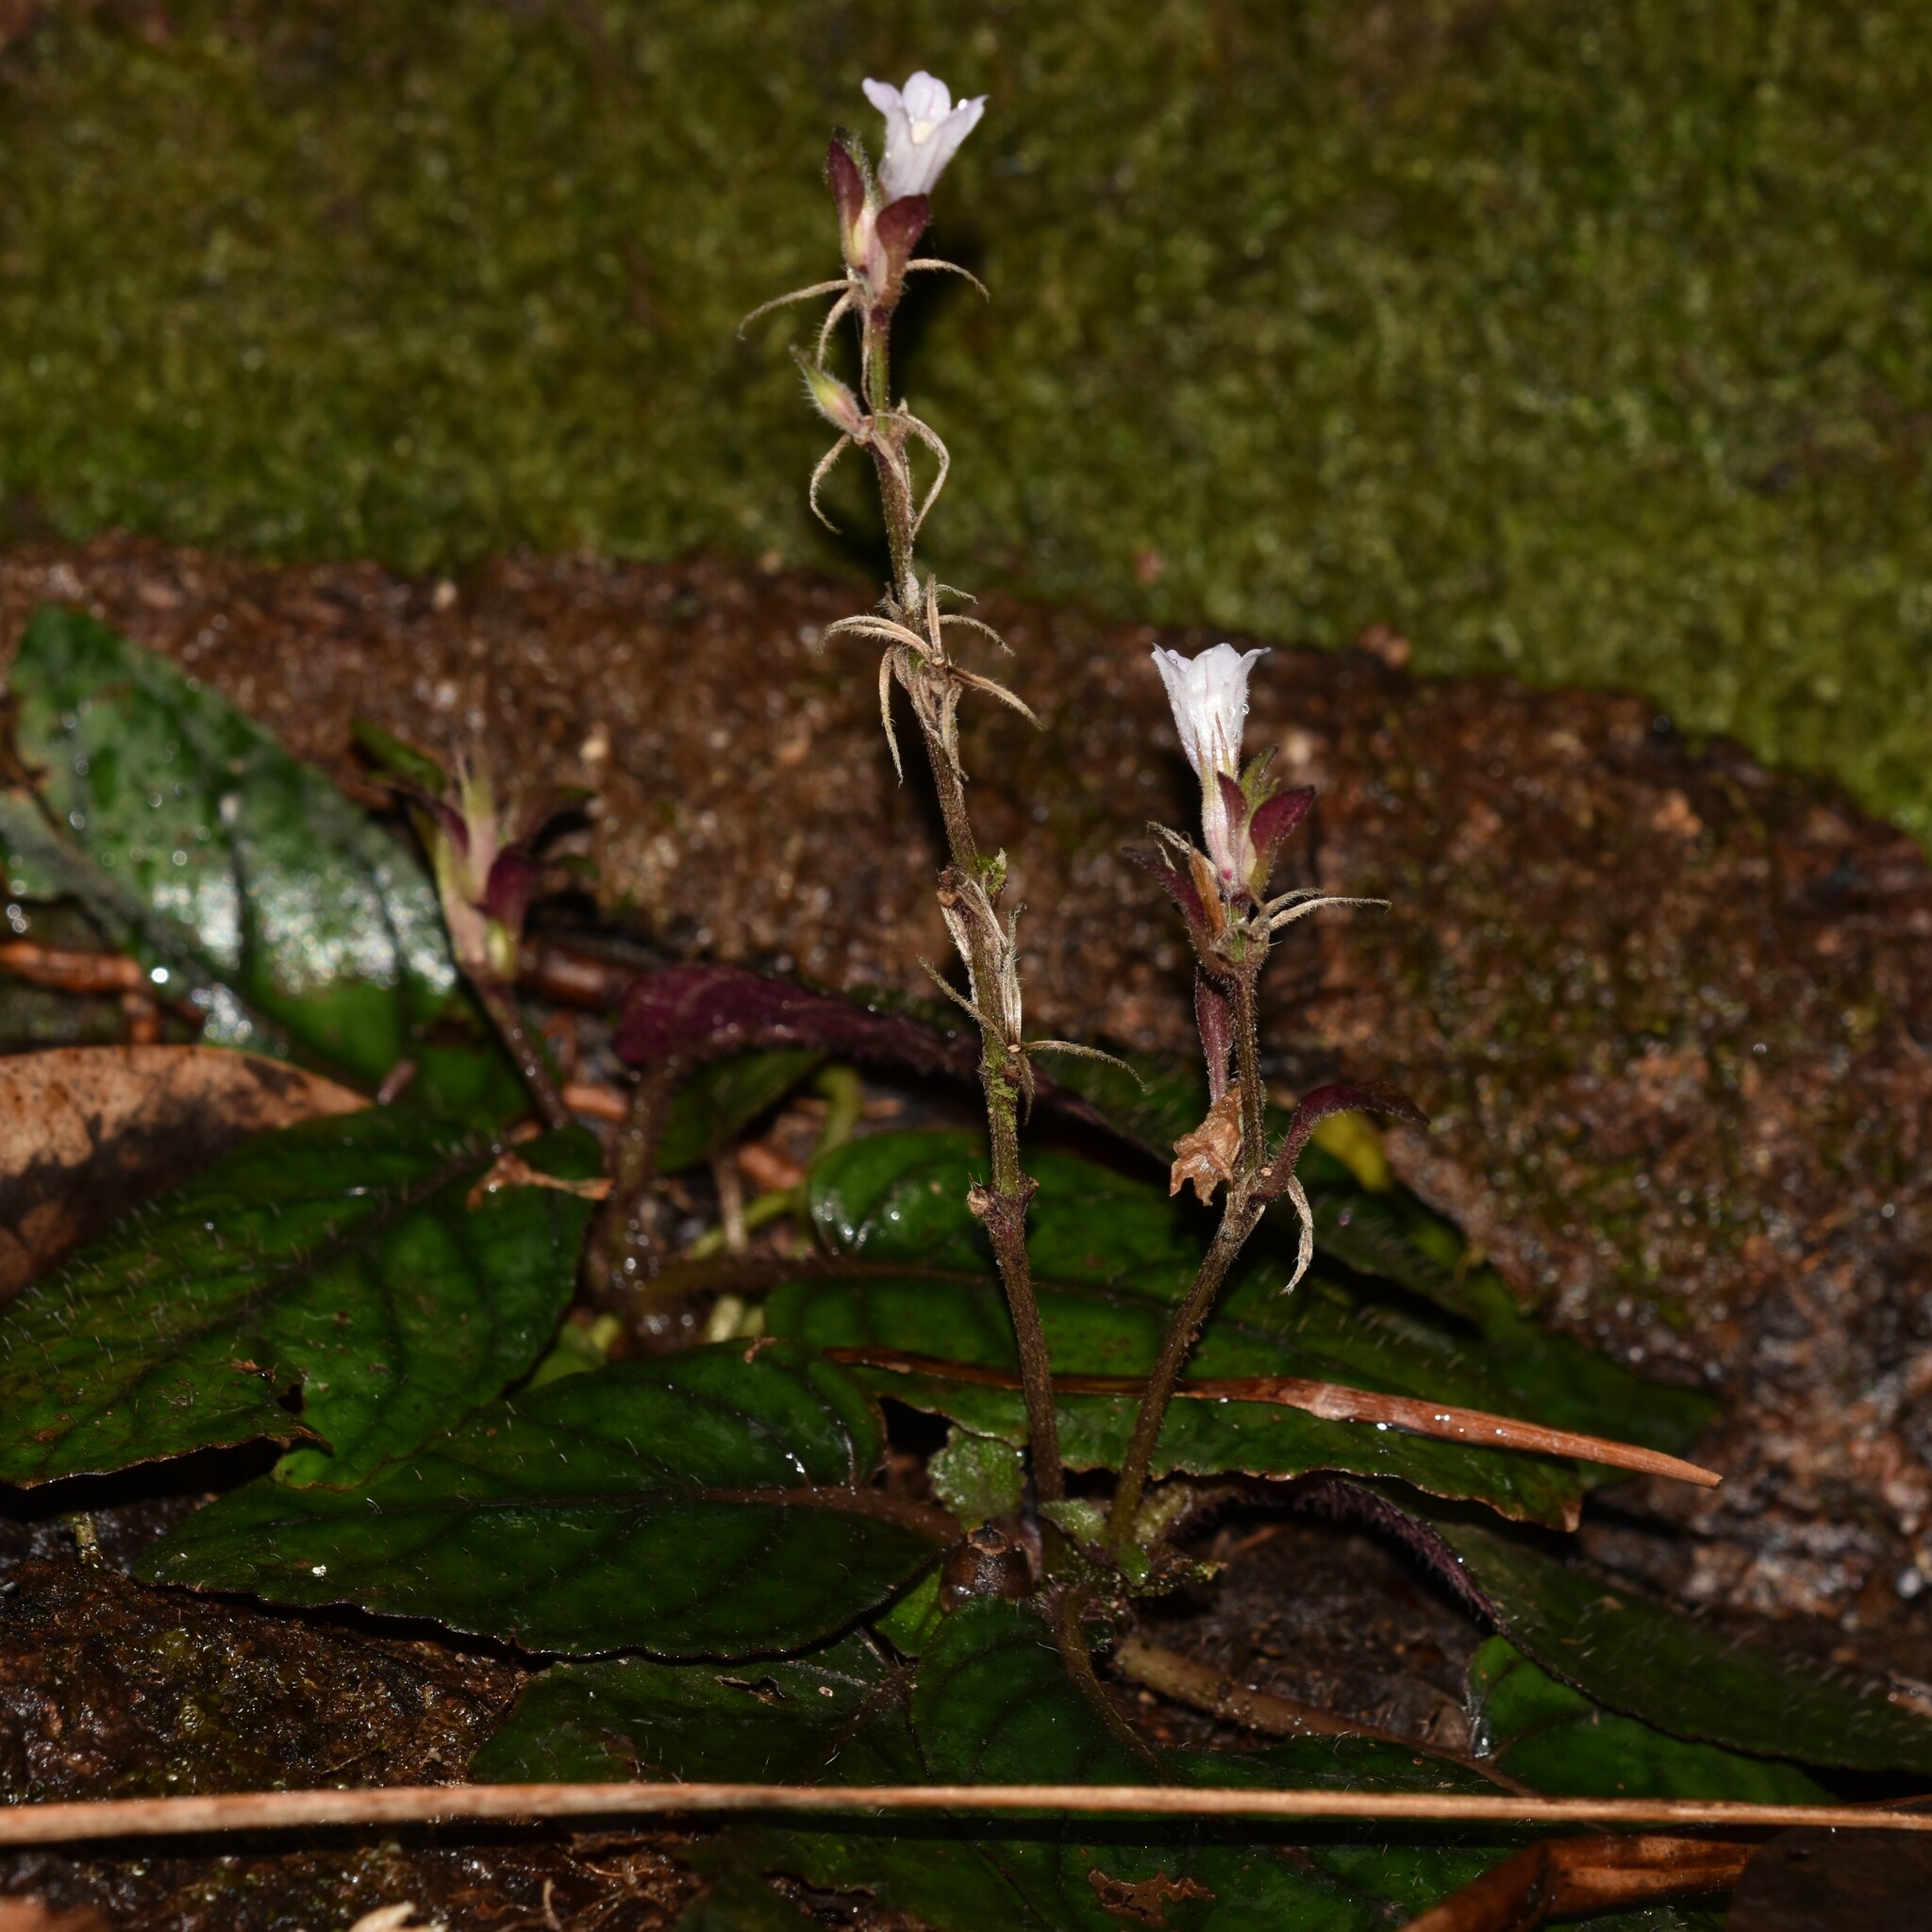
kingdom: Plantae
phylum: Tracheophyta
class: Magnoliopsida
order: Lamiales
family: Acanthaceae
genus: Strobilanthes
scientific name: Strobilanthes reptans
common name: Acanthaceae
